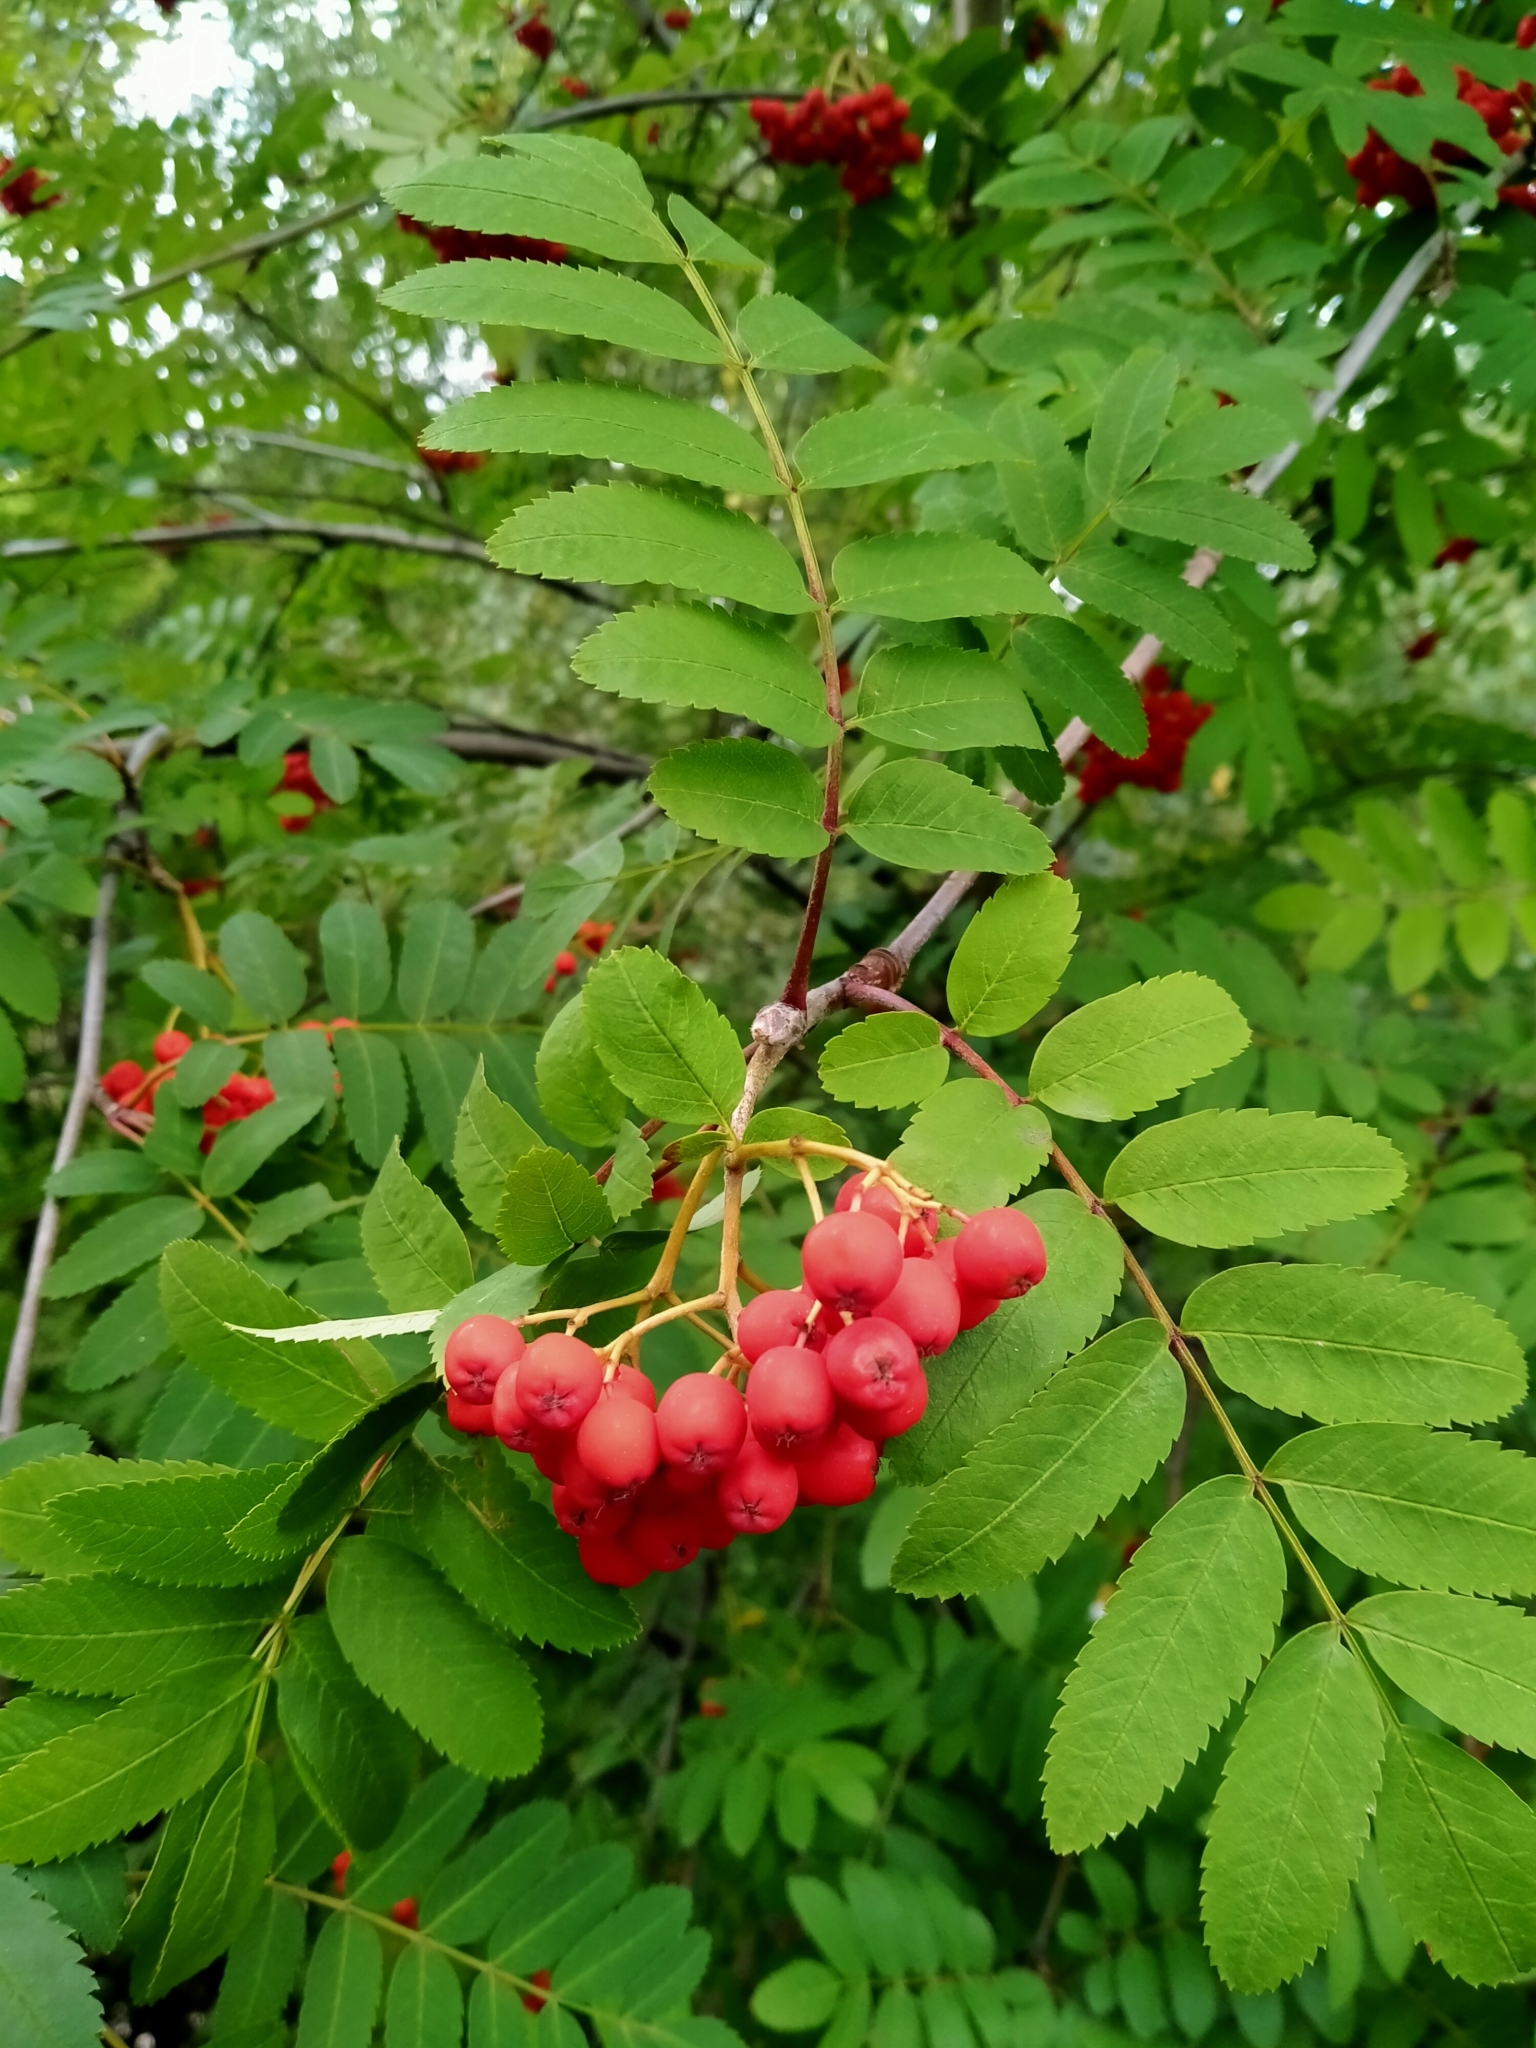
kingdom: Plantae
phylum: Tracheophyta
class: Magnoliopsida
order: Rosales
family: Rosaceae
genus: Sorbus
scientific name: Sorbus aucuparia
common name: Rowan
